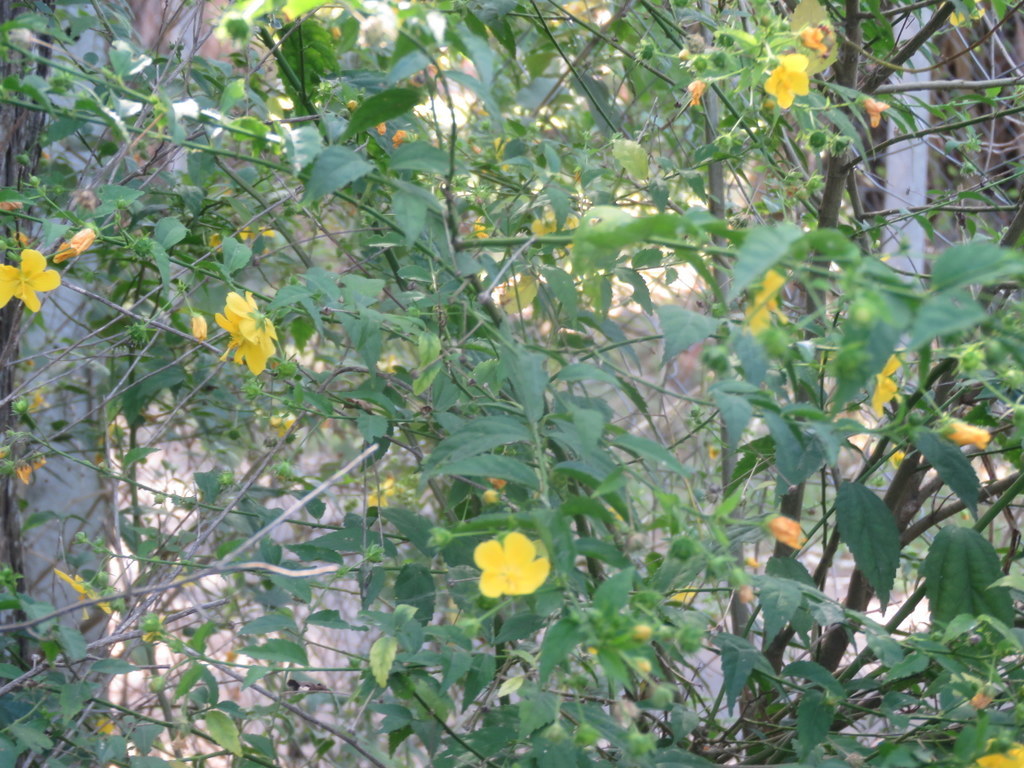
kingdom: Plantae
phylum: Tracheophyta
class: Magnoliopsida
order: Malvales
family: Malvaceae
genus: Pavonia
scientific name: Pavonia sepium
